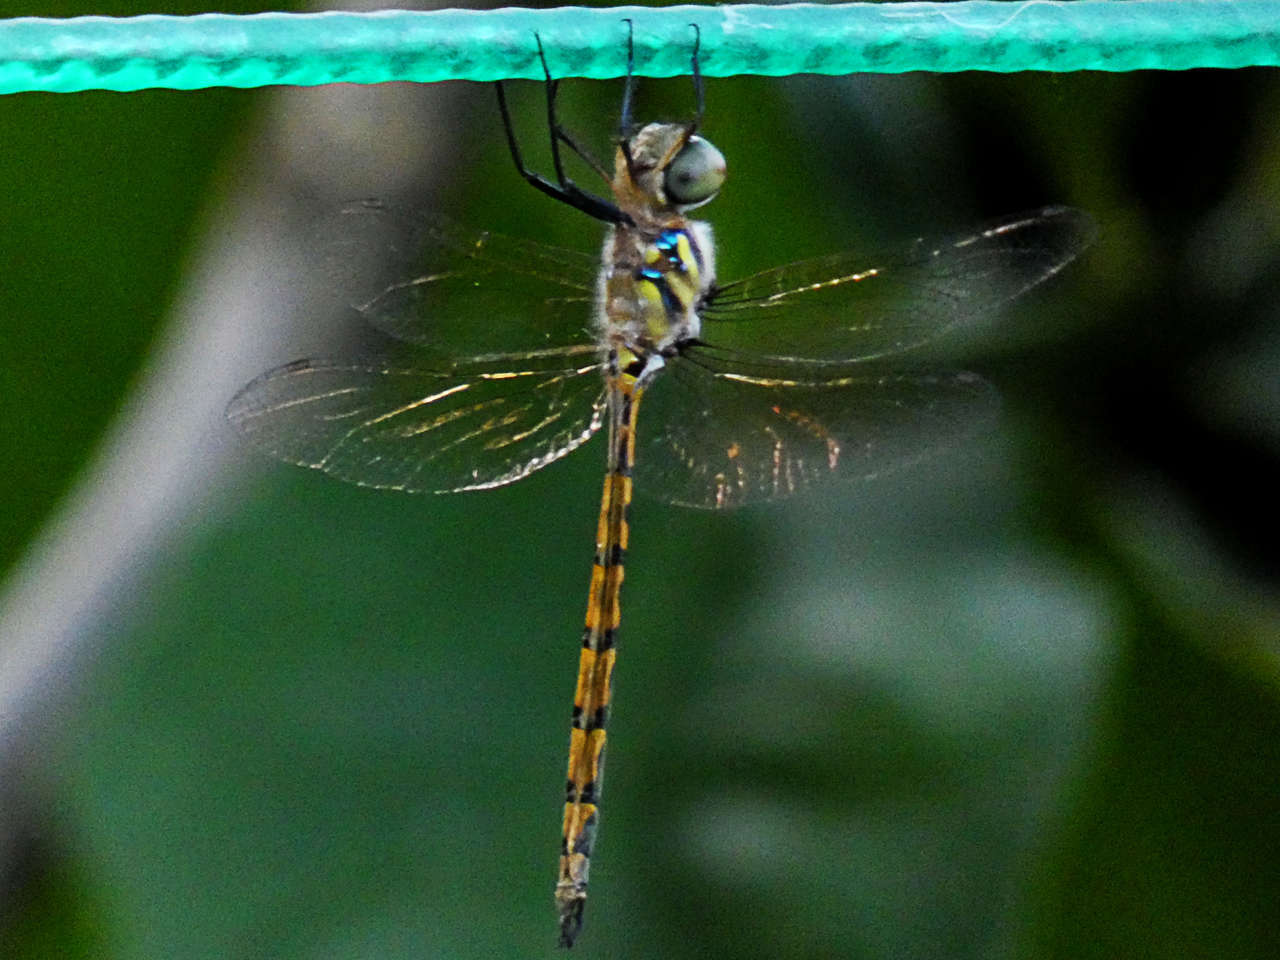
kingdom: Animalia
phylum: Arthropoda
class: Insecta
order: Odonata
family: Corduliidae
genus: Hemicordulia
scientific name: Hemicordulia australiae
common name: Sentry dragonfly
